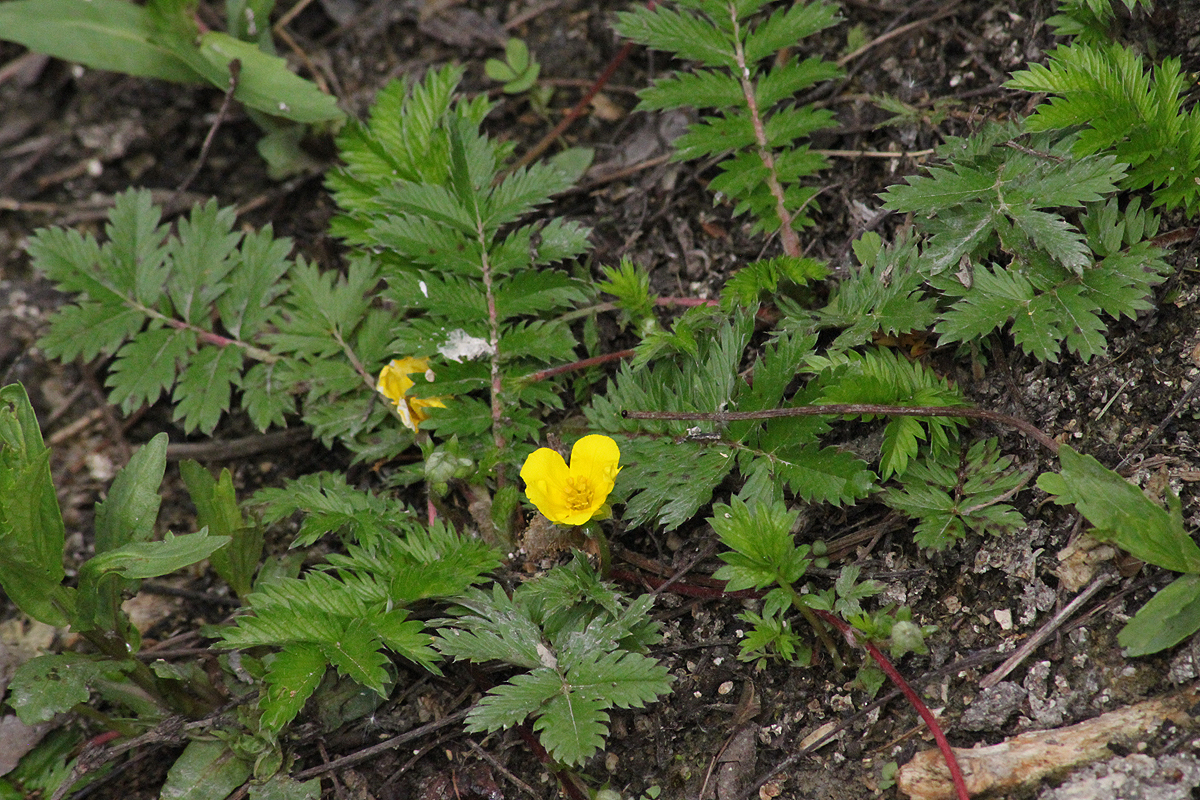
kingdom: Plantae
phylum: Tracheophyta
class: Magnoliopsida
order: Rosales
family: Rosaceae
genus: Argentina
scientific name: Argentina anserina
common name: Common silverweed
